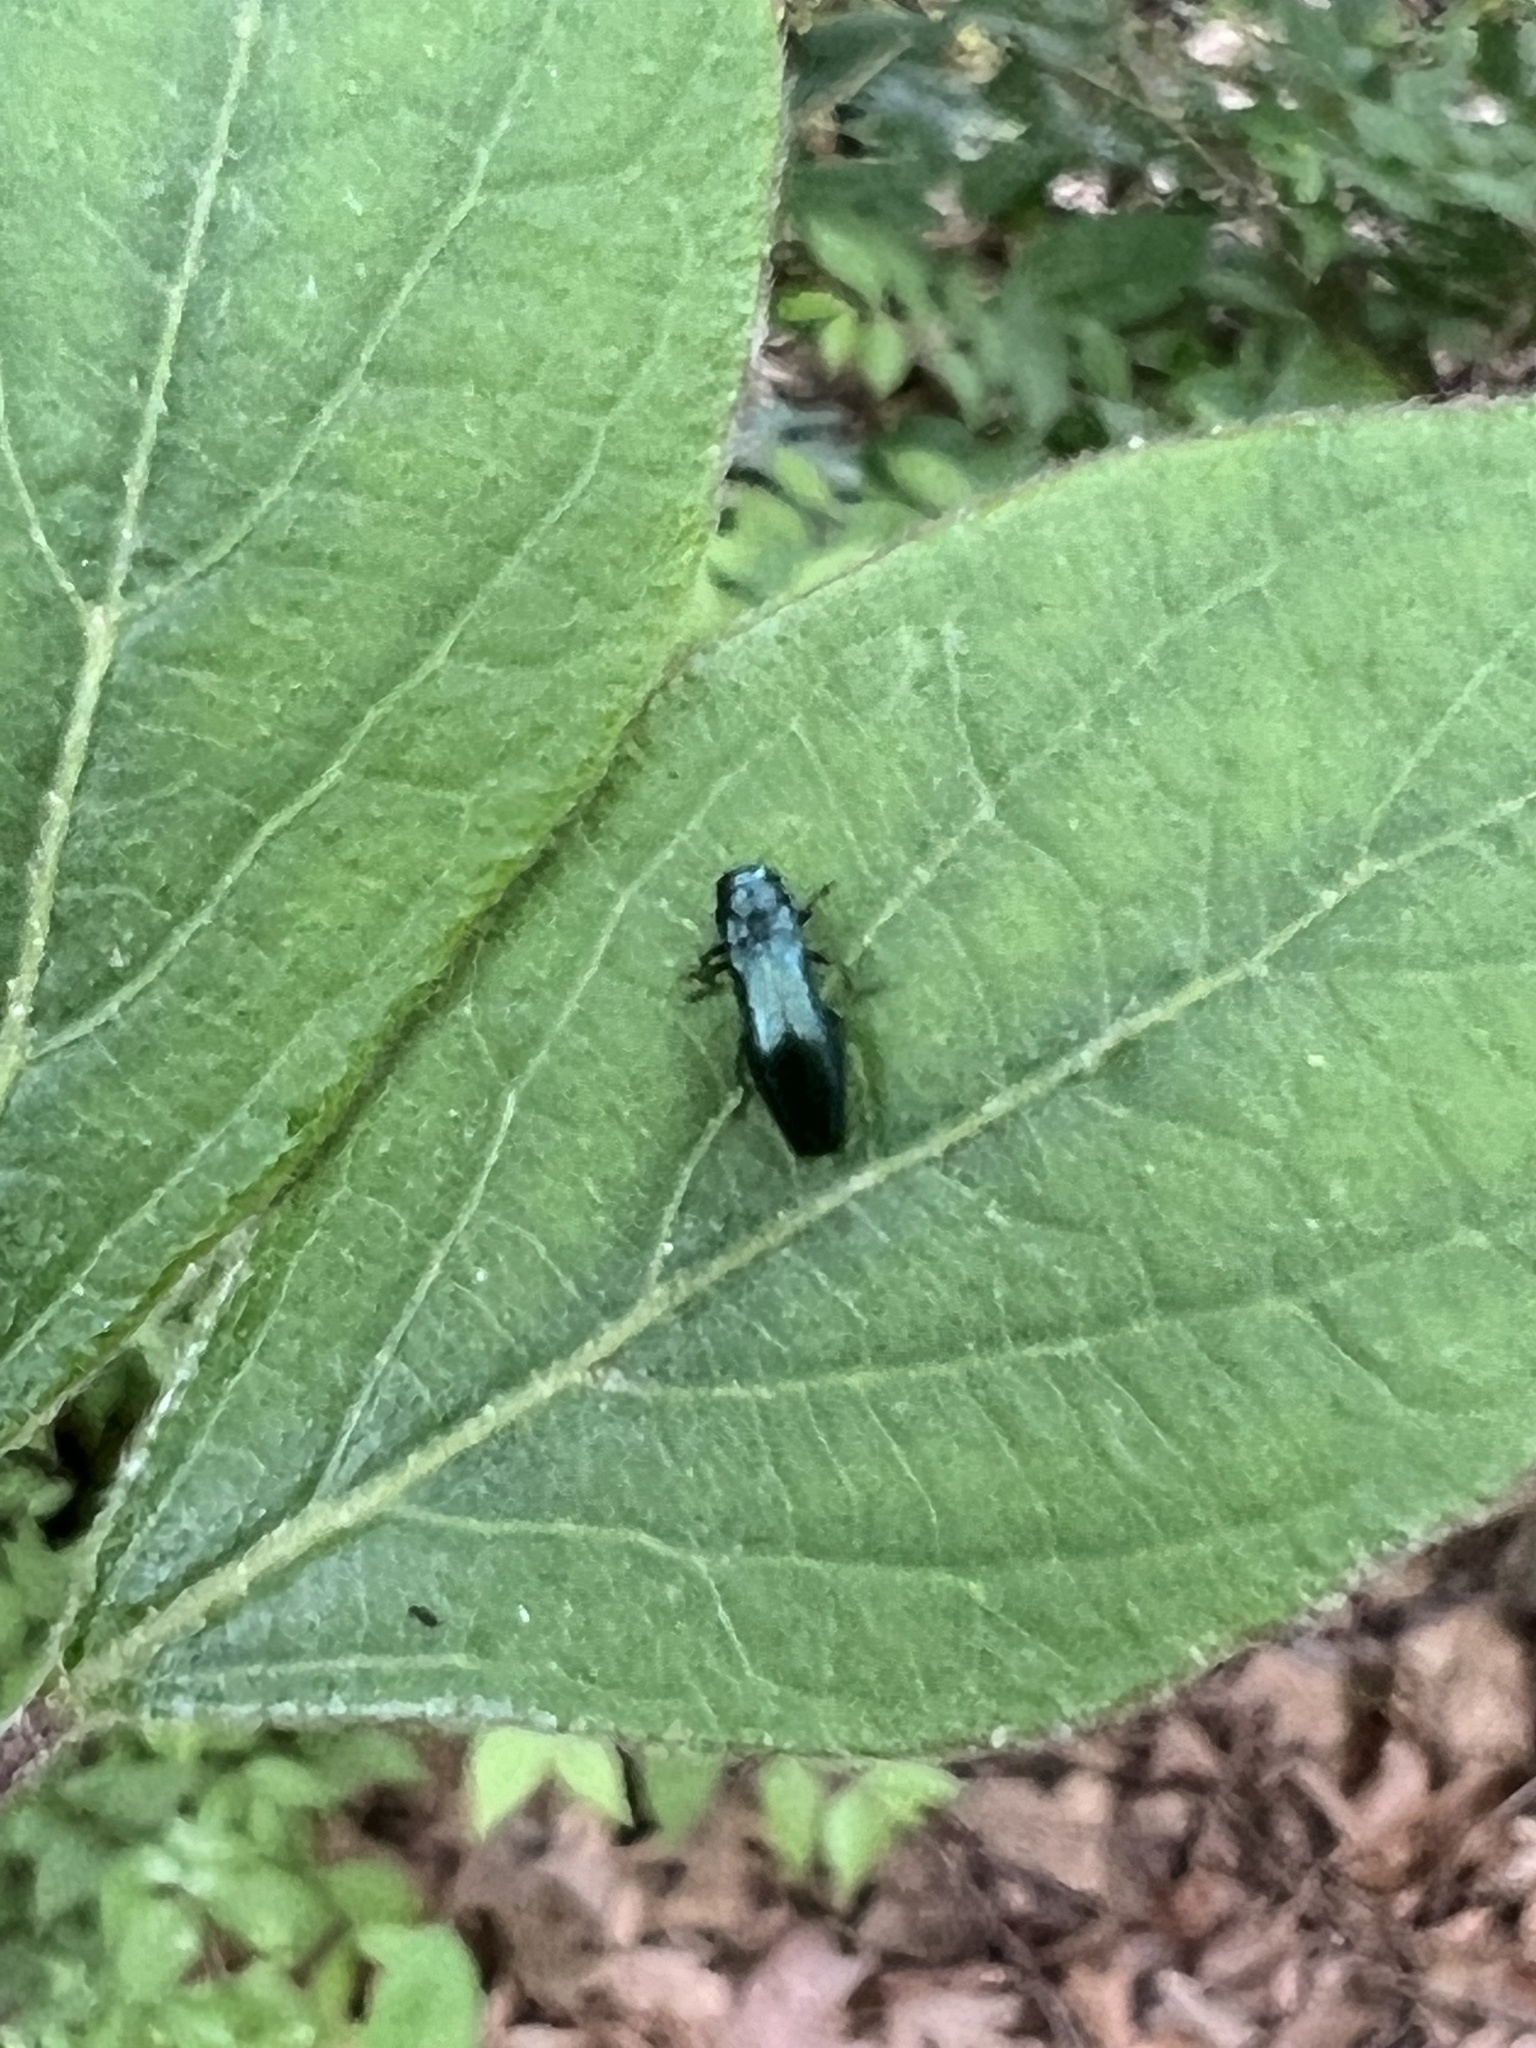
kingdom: Animalia
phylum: Arthropoda
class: Insecta
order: Coleoptera
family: Buprestidae
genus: Agrilus
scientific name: Agrilus cyanescens
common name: Bluish borer beetle
